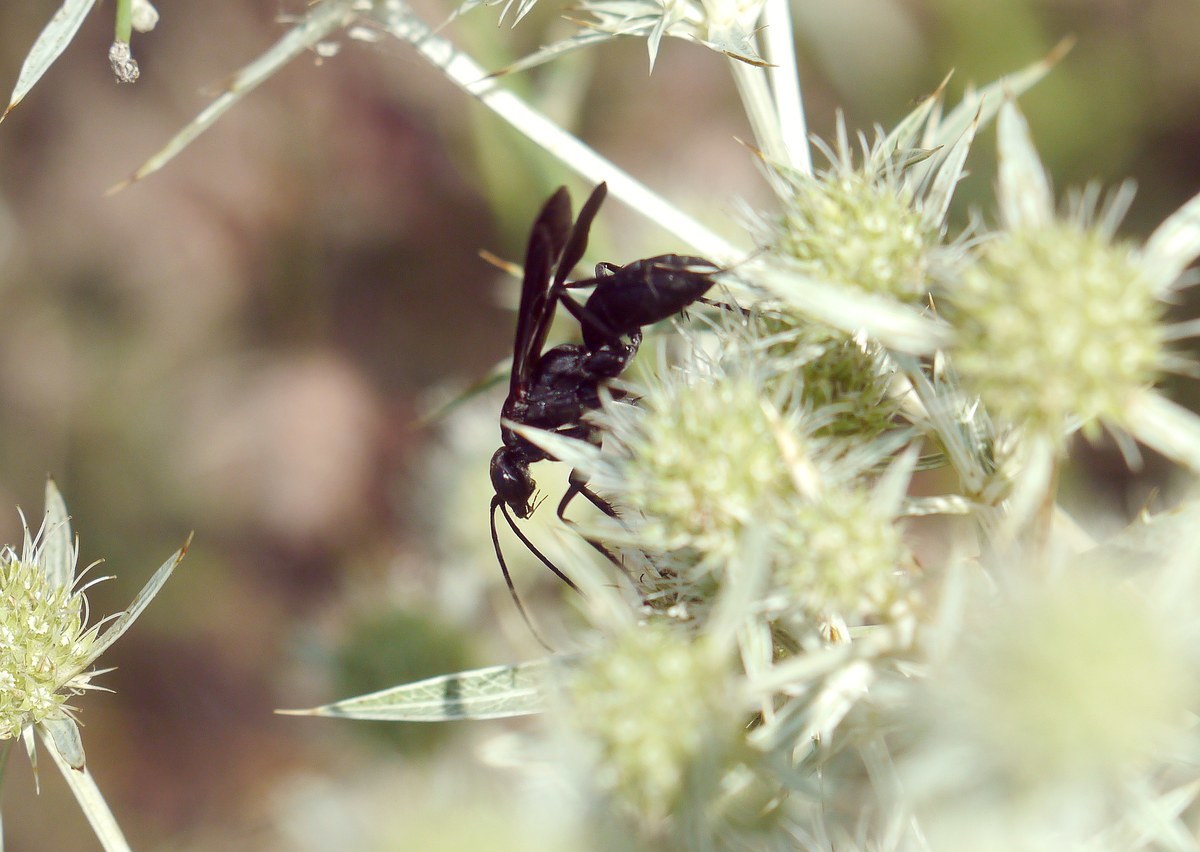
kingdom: Animalia
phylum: Arthropoda
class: Insecta
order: Hymenoptera
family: Pompilidae
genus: Agenioideus
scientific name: Agenioideus excisus
